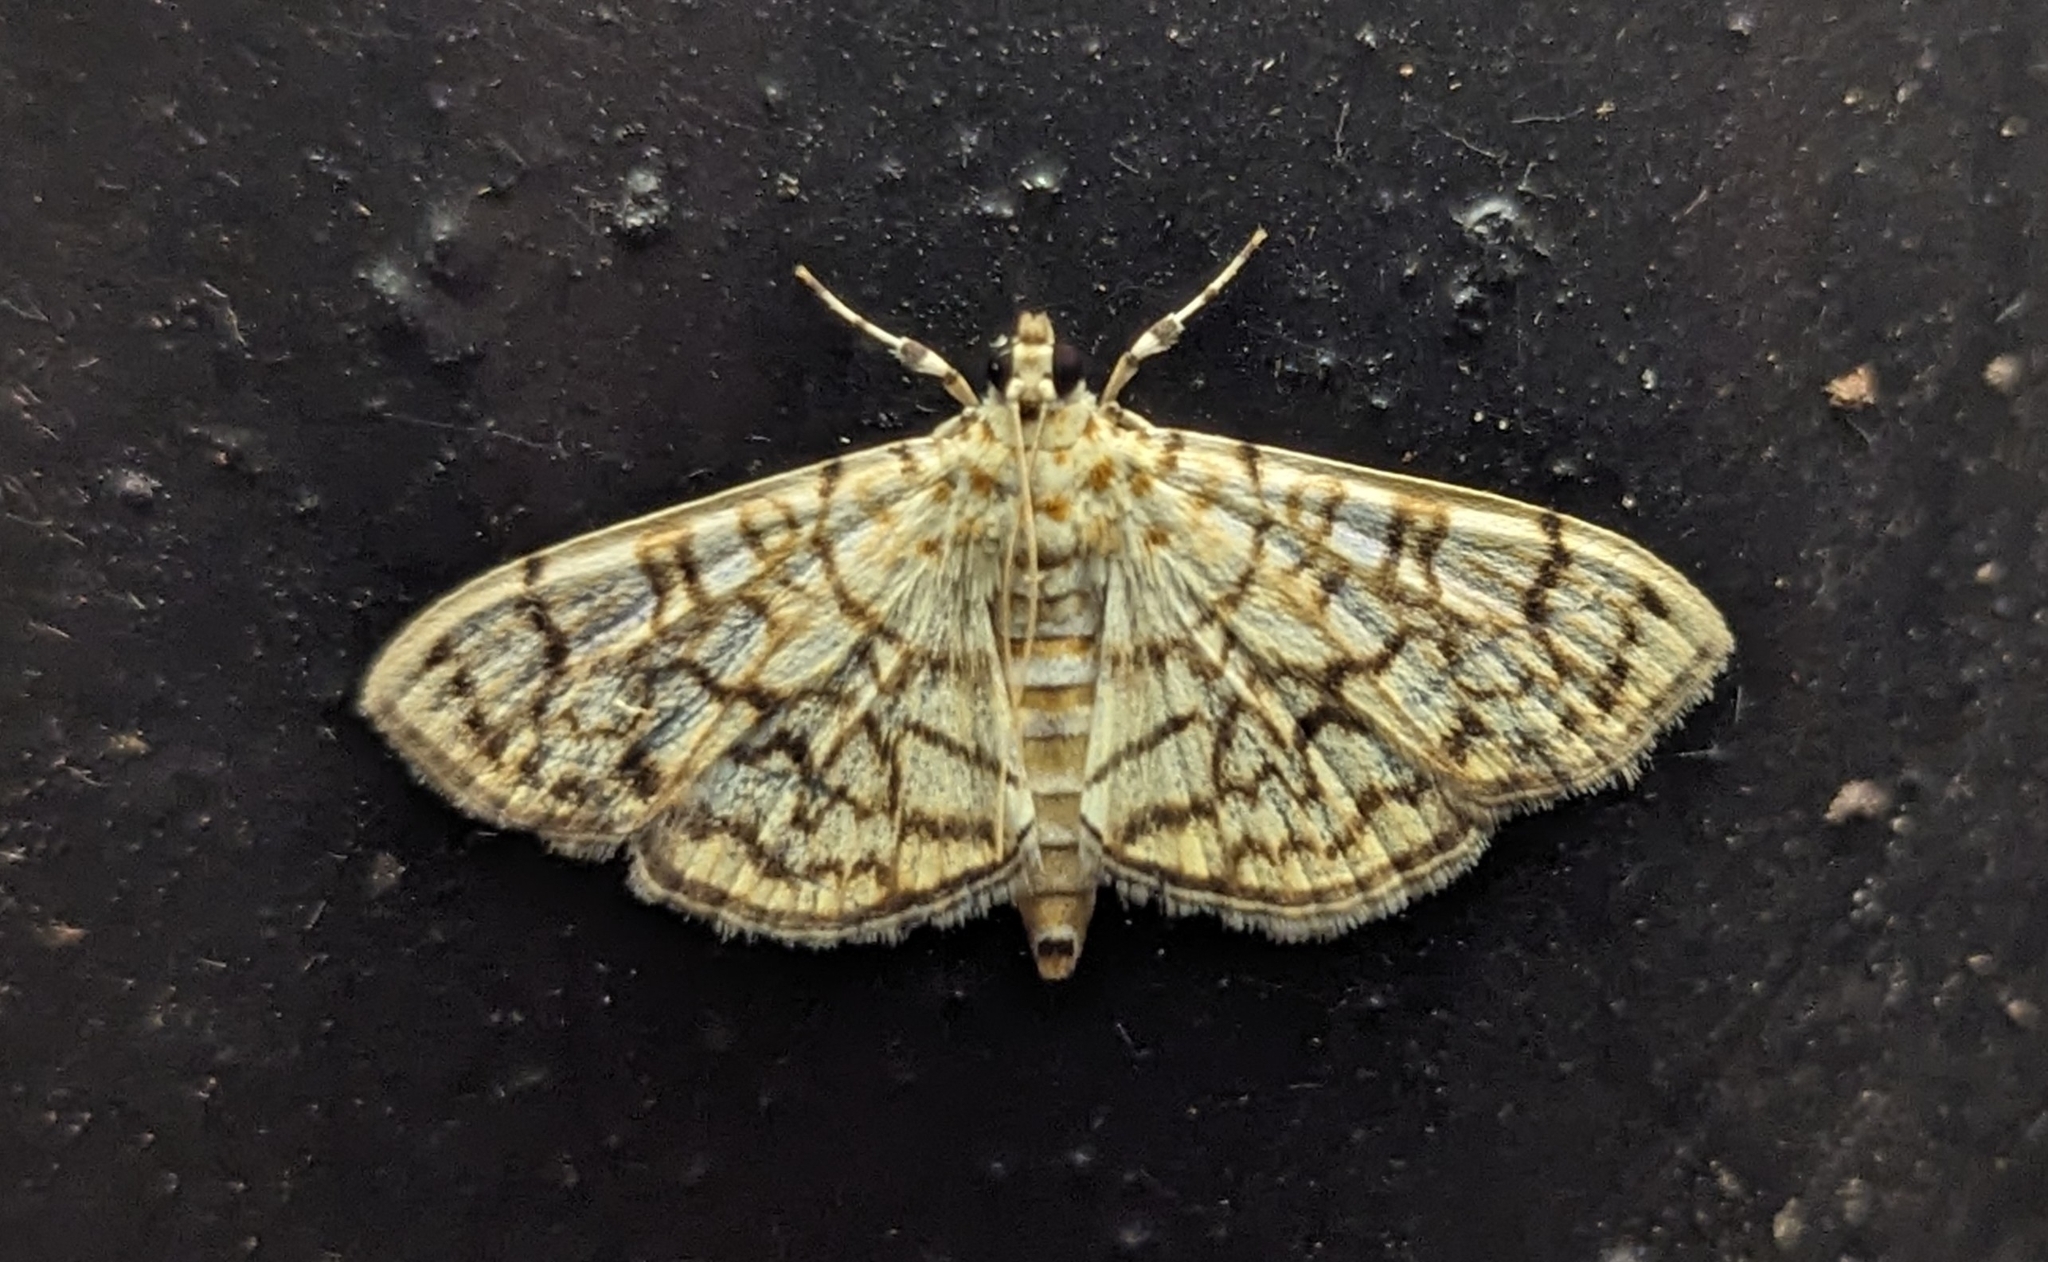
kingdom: Animalia
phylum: Arthropoda
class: Insecta
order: Lepidoptera
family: Crambidae
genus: Haritalodes
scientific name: Haritalodes derogata
